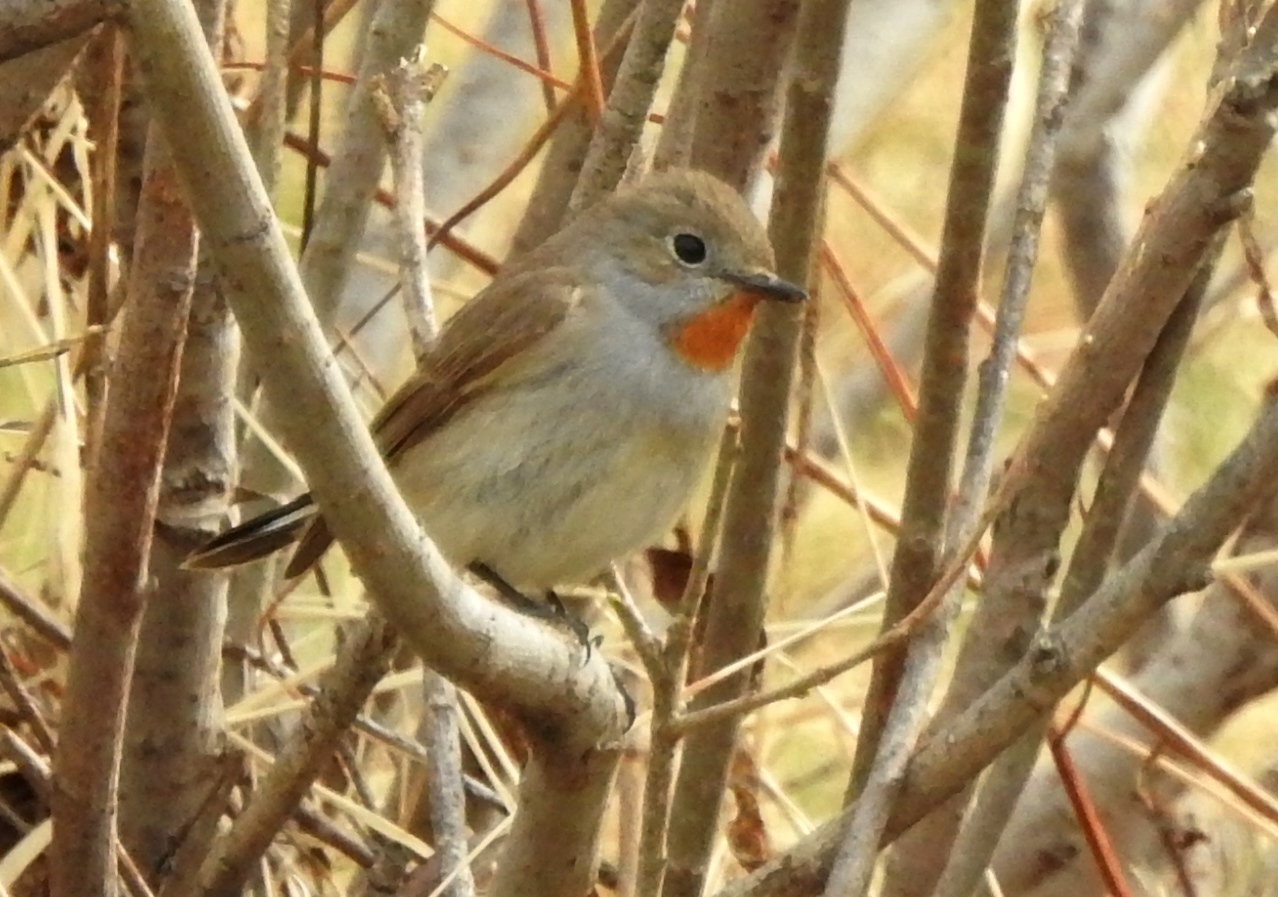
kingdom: Animalia
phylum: Chordata
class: Aves
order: Passeriformes
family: Muscicapidae
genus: Ficedula
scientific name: Ficedula albicilla
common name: Taiga flycatcher
